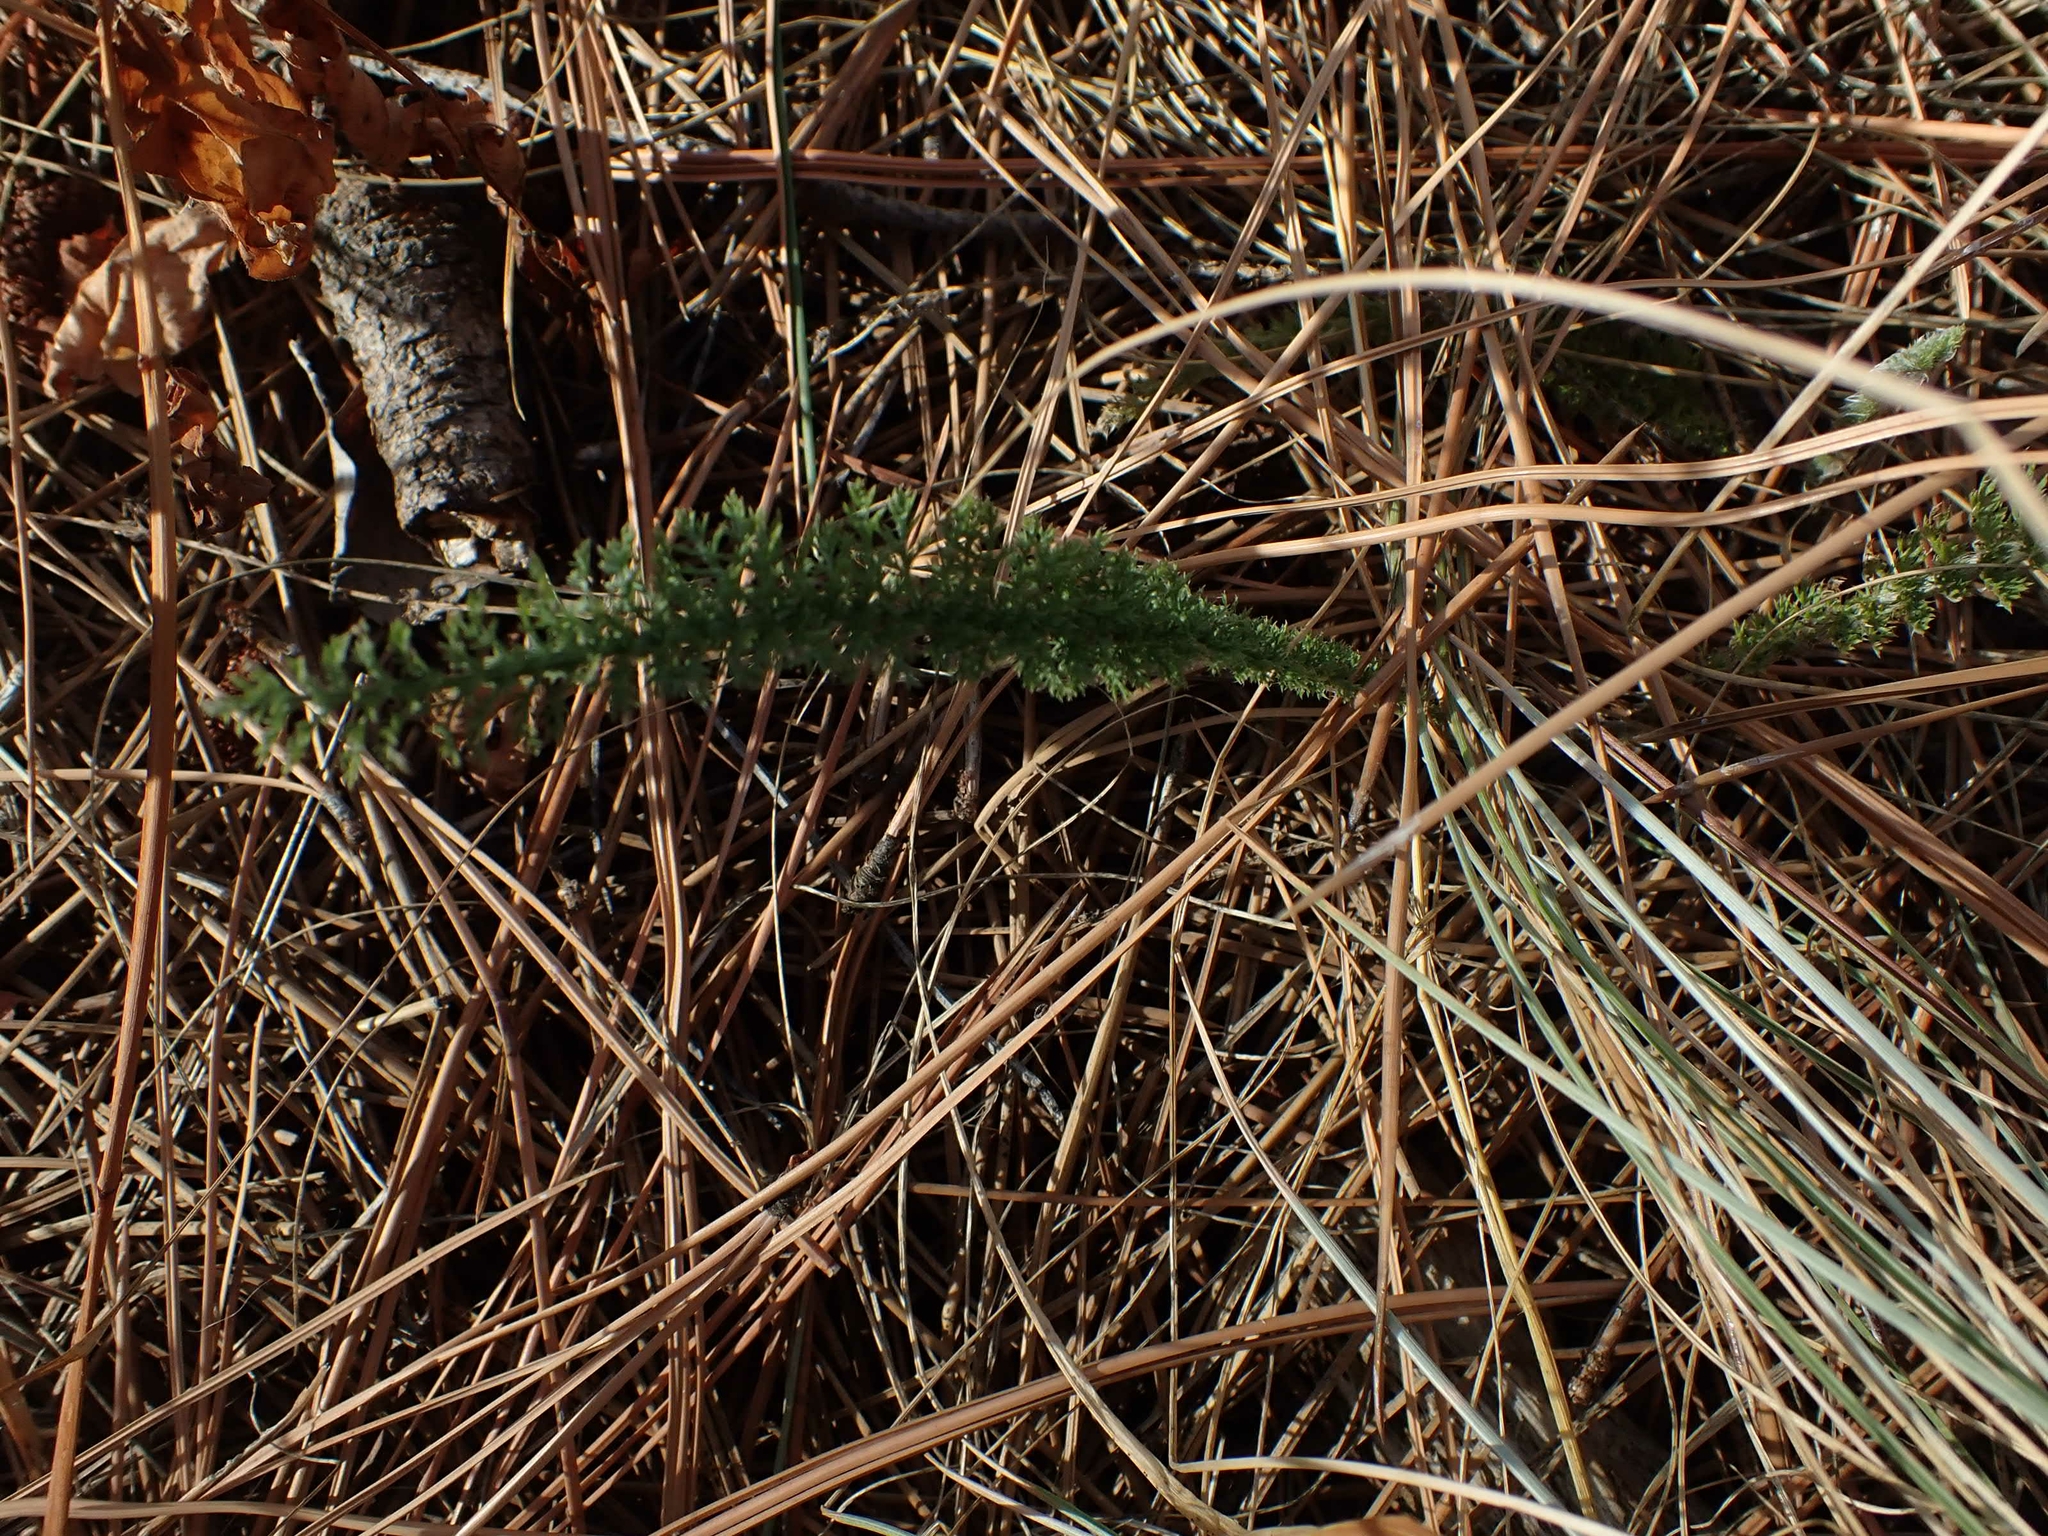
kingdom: Plantae
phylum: Tracheophyta
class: Magnoliopsida
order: Asterales
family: Asteraceae
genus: Achillea
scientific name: Achillea millefolium
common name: Yarrow
